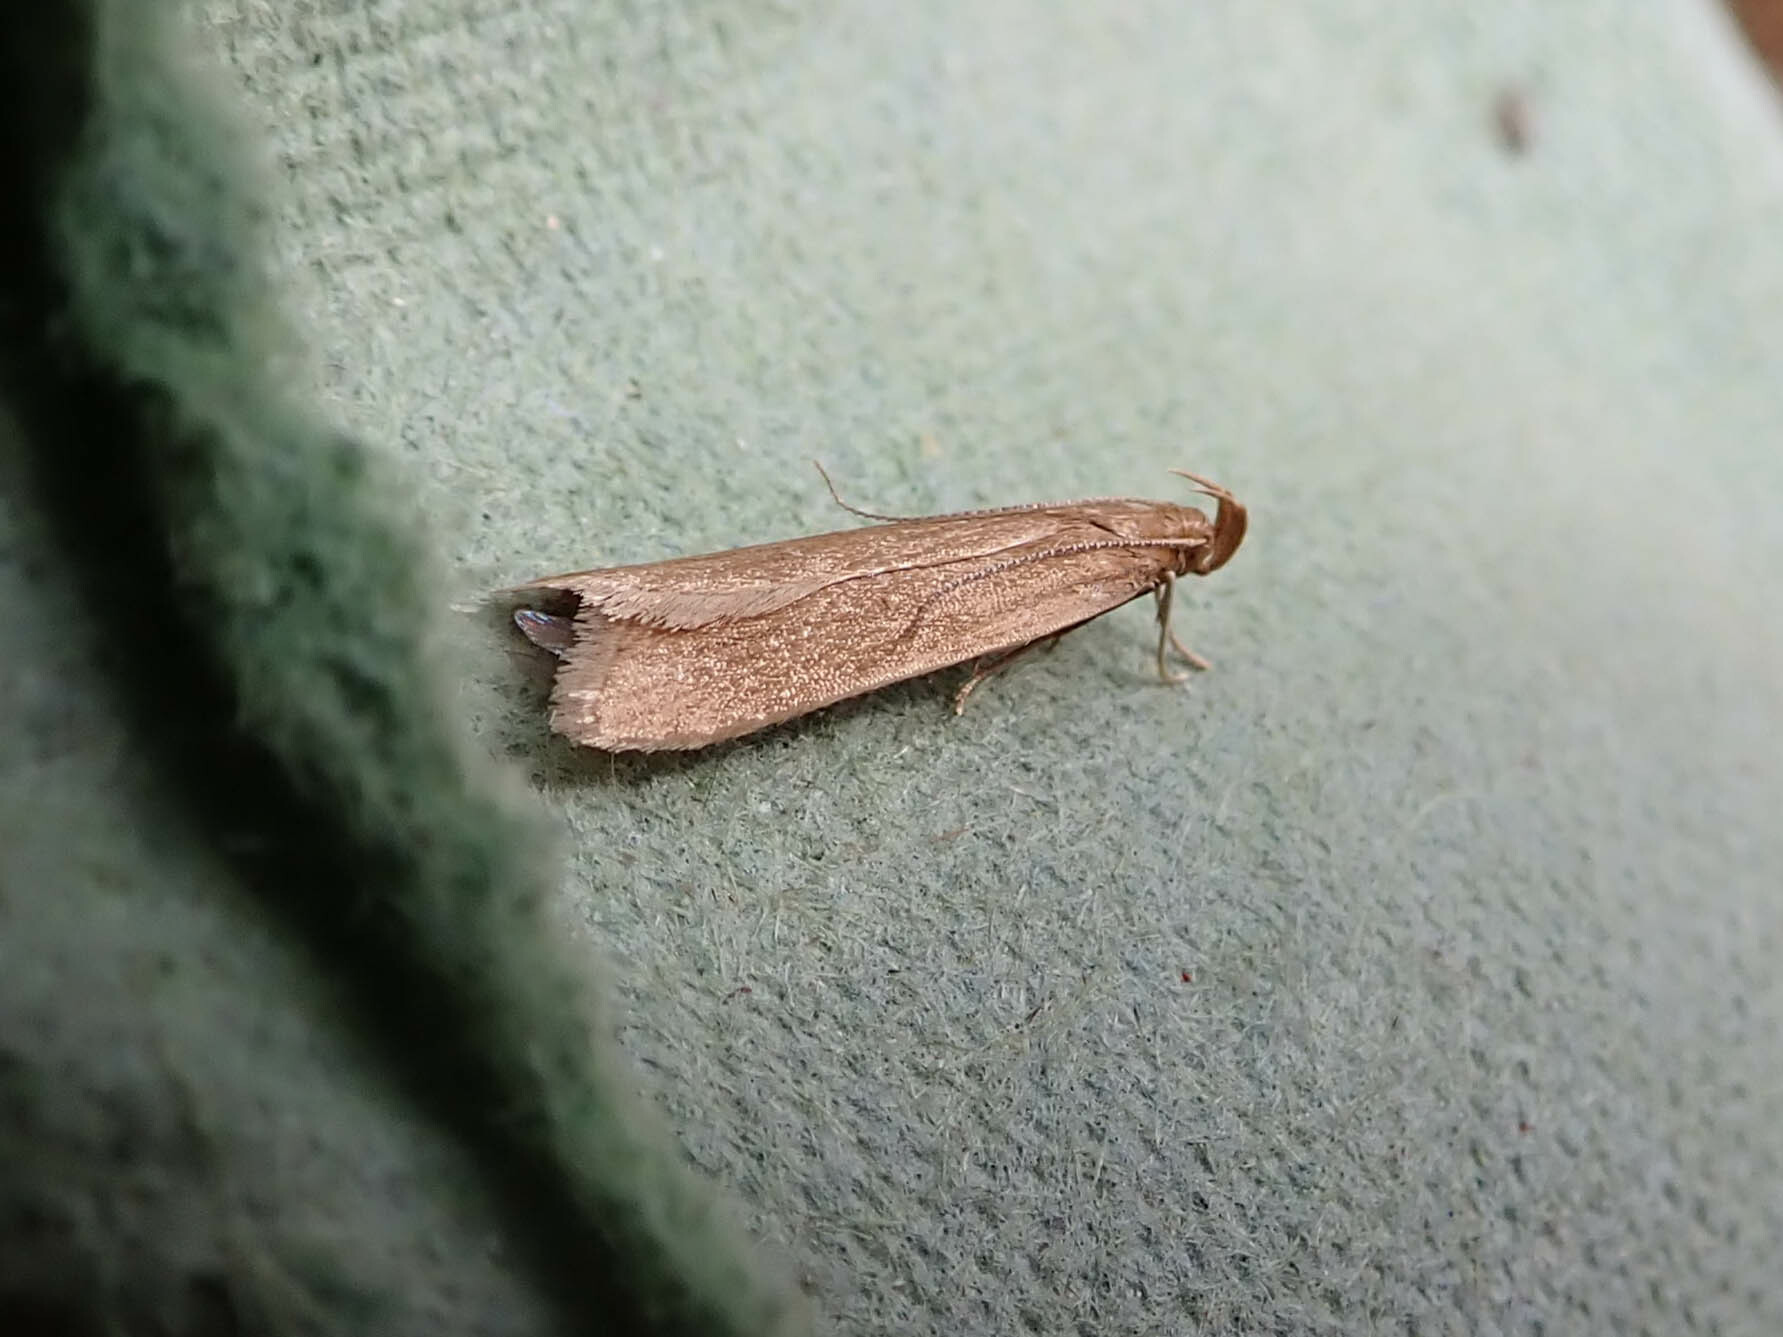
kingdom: Animalia
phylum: Arthropoda
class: Insecta
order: Lepidoptera
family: Gelechiidae
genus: Helcystogramma
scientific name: Helcystogramma rufescens
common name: Orange crest
